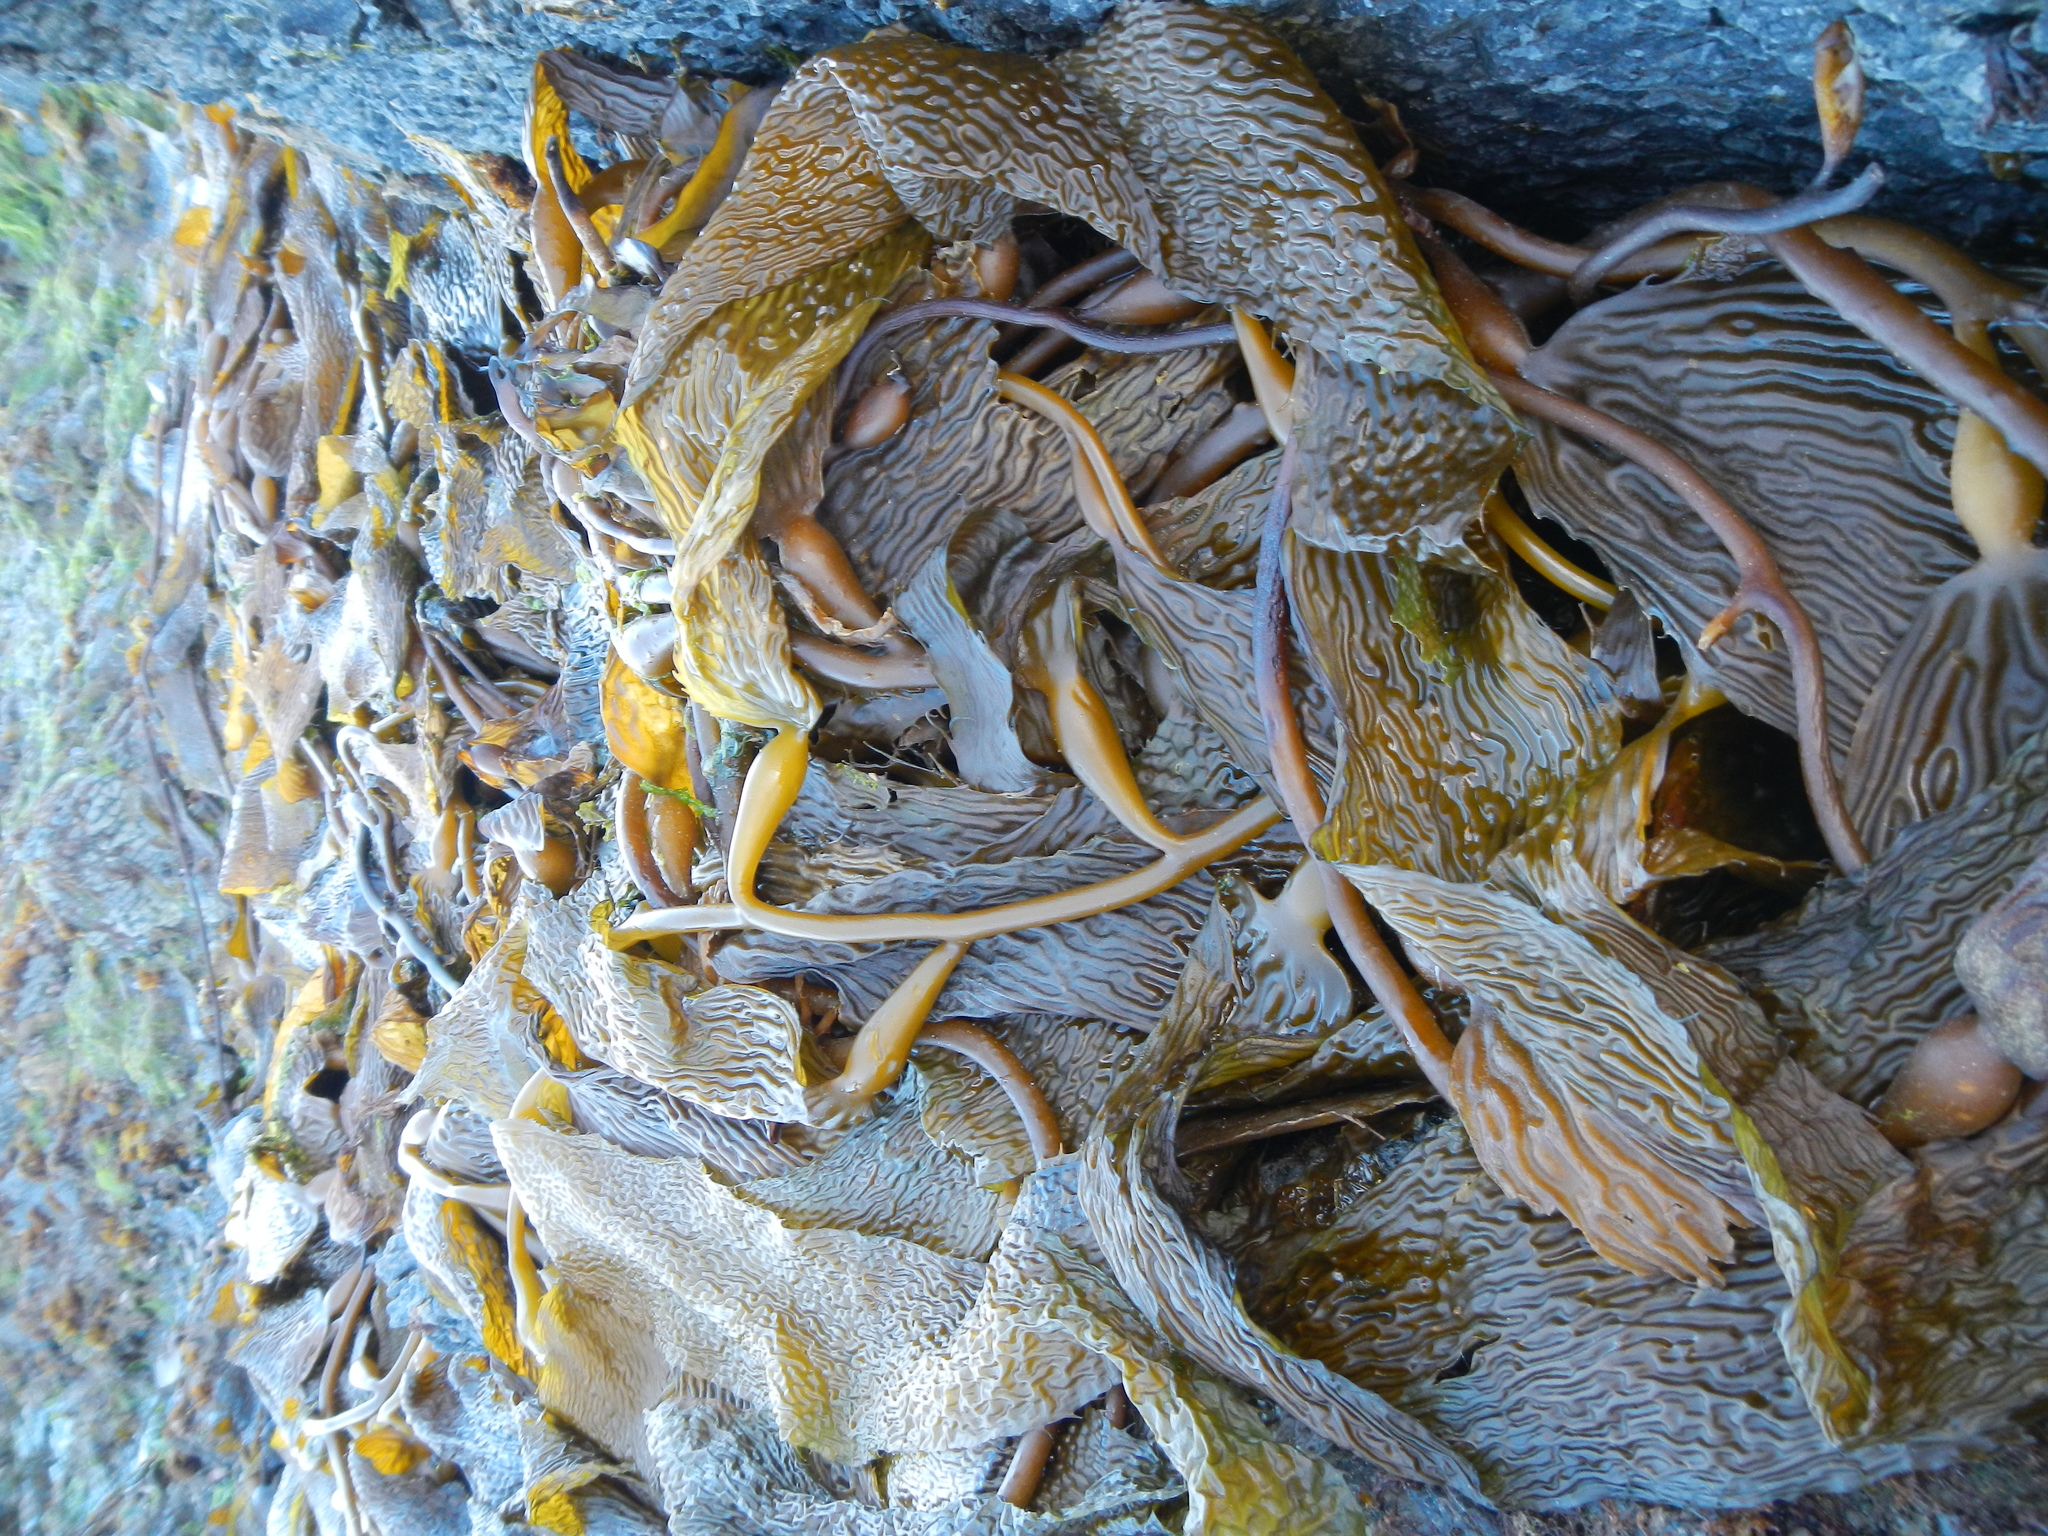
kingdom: Chromista
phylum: Ochrophyta
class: Phaeophyceae
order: Laminariales
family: Laminariaceae
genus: Macrocystis
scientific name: Macrocystis pyrifera
